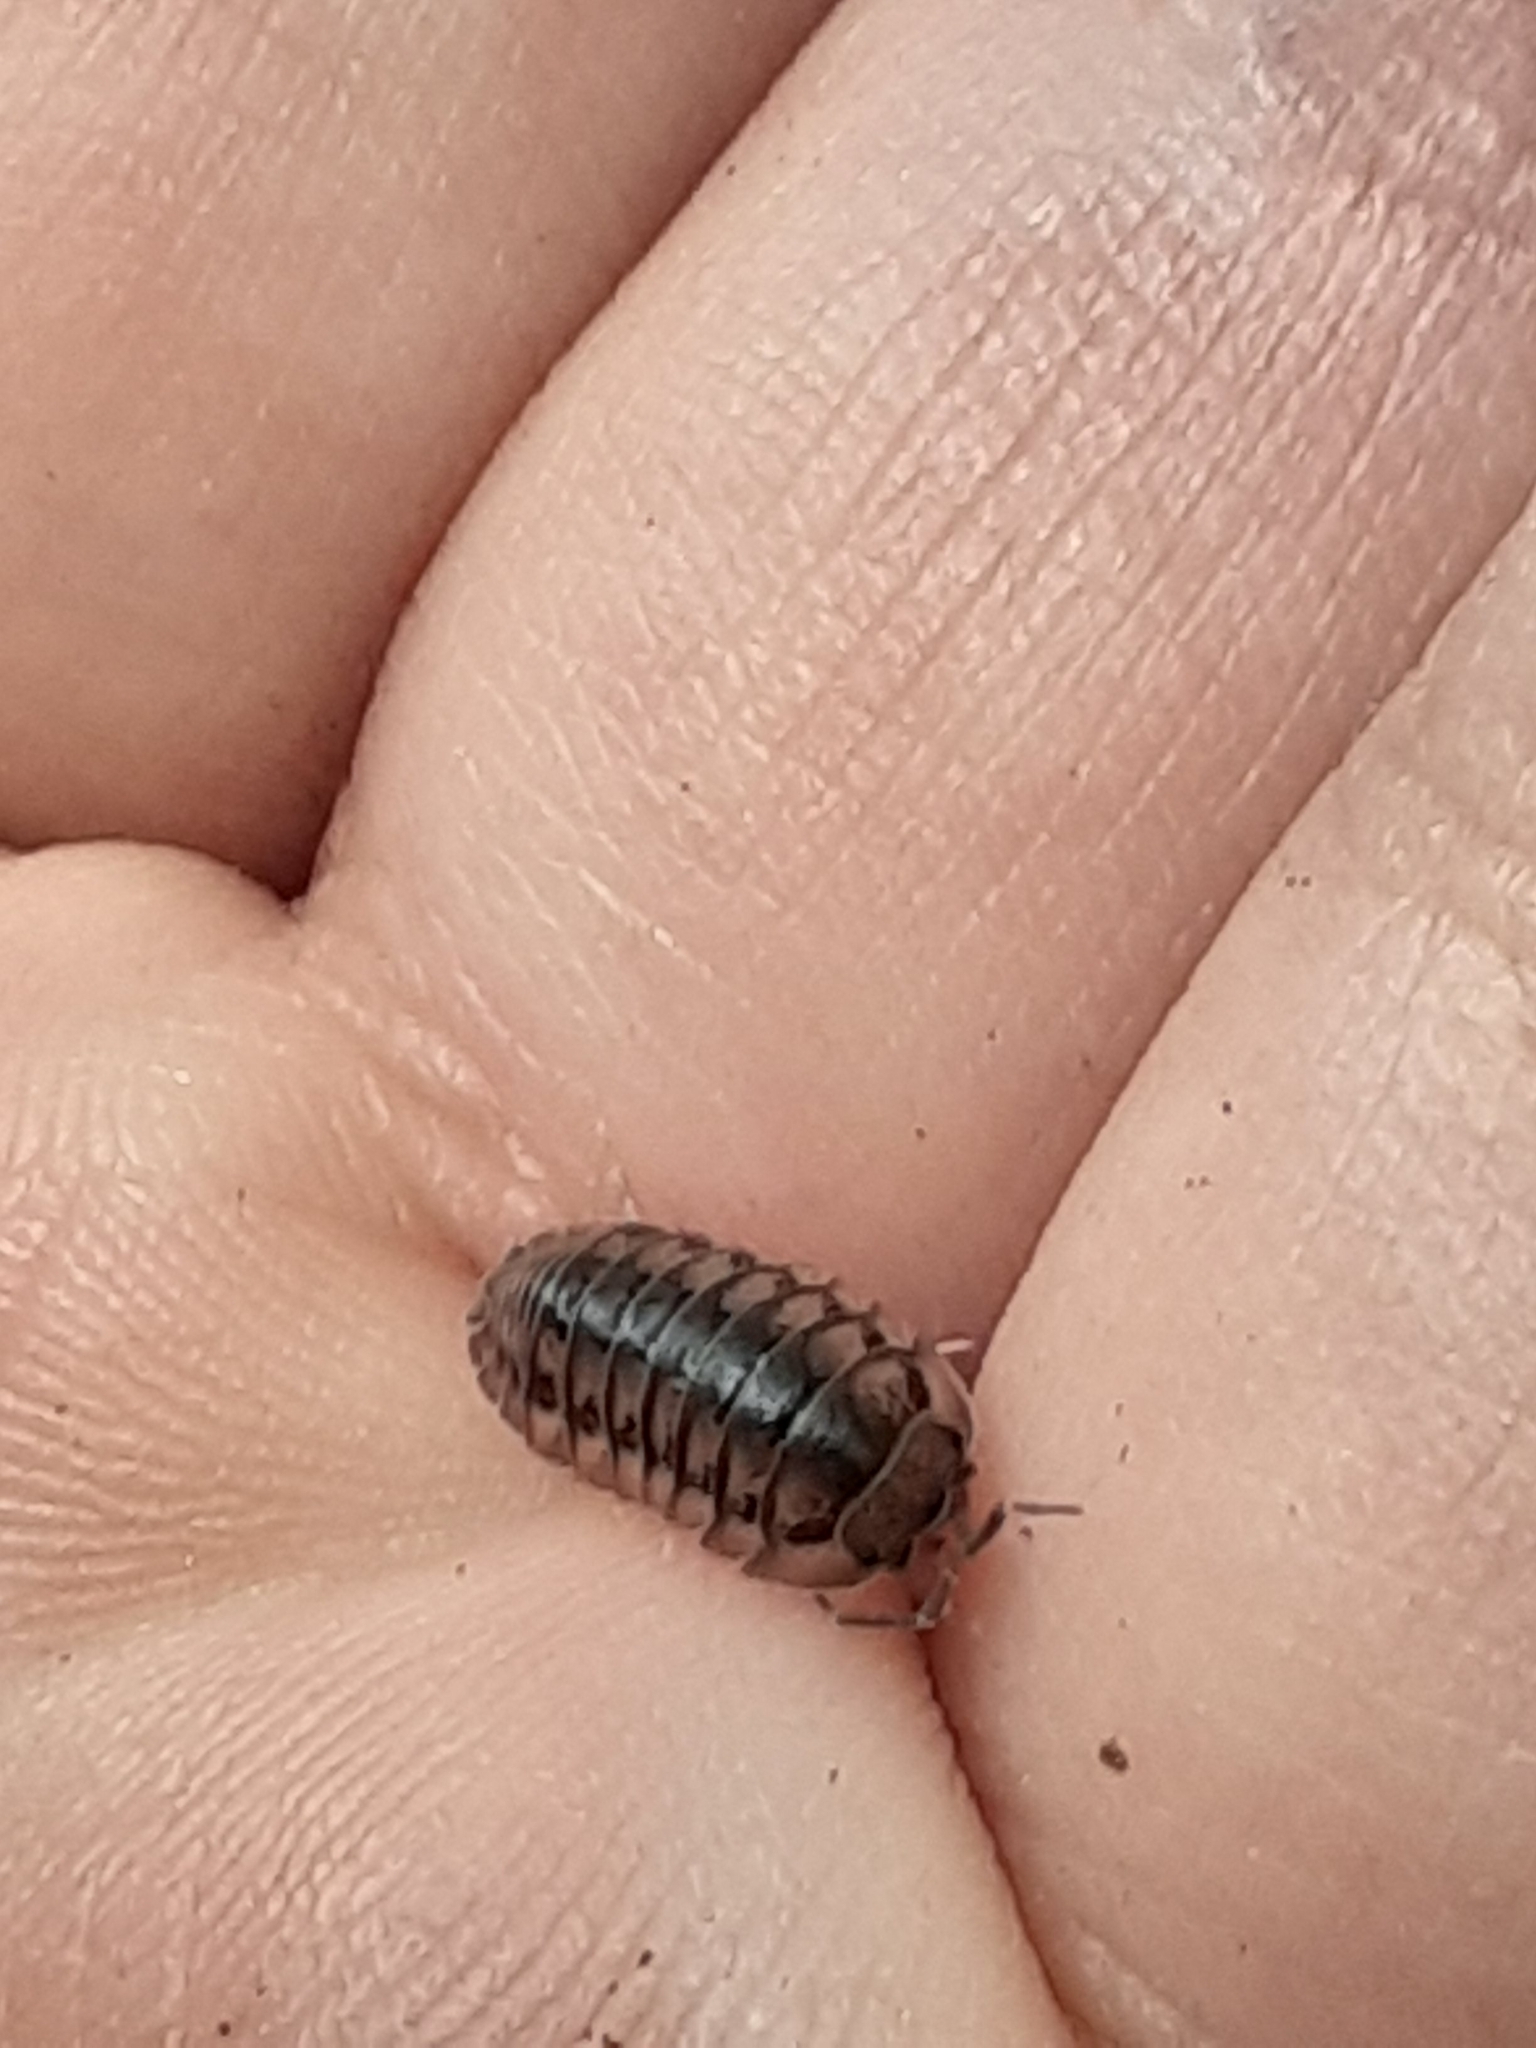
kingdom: Animalia
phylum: Arthropoda
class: Malacostraca
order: Isopoda
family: Armadillidiidae
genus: Armadillidium
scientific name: Armadillidium nasatum
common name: Isopod
